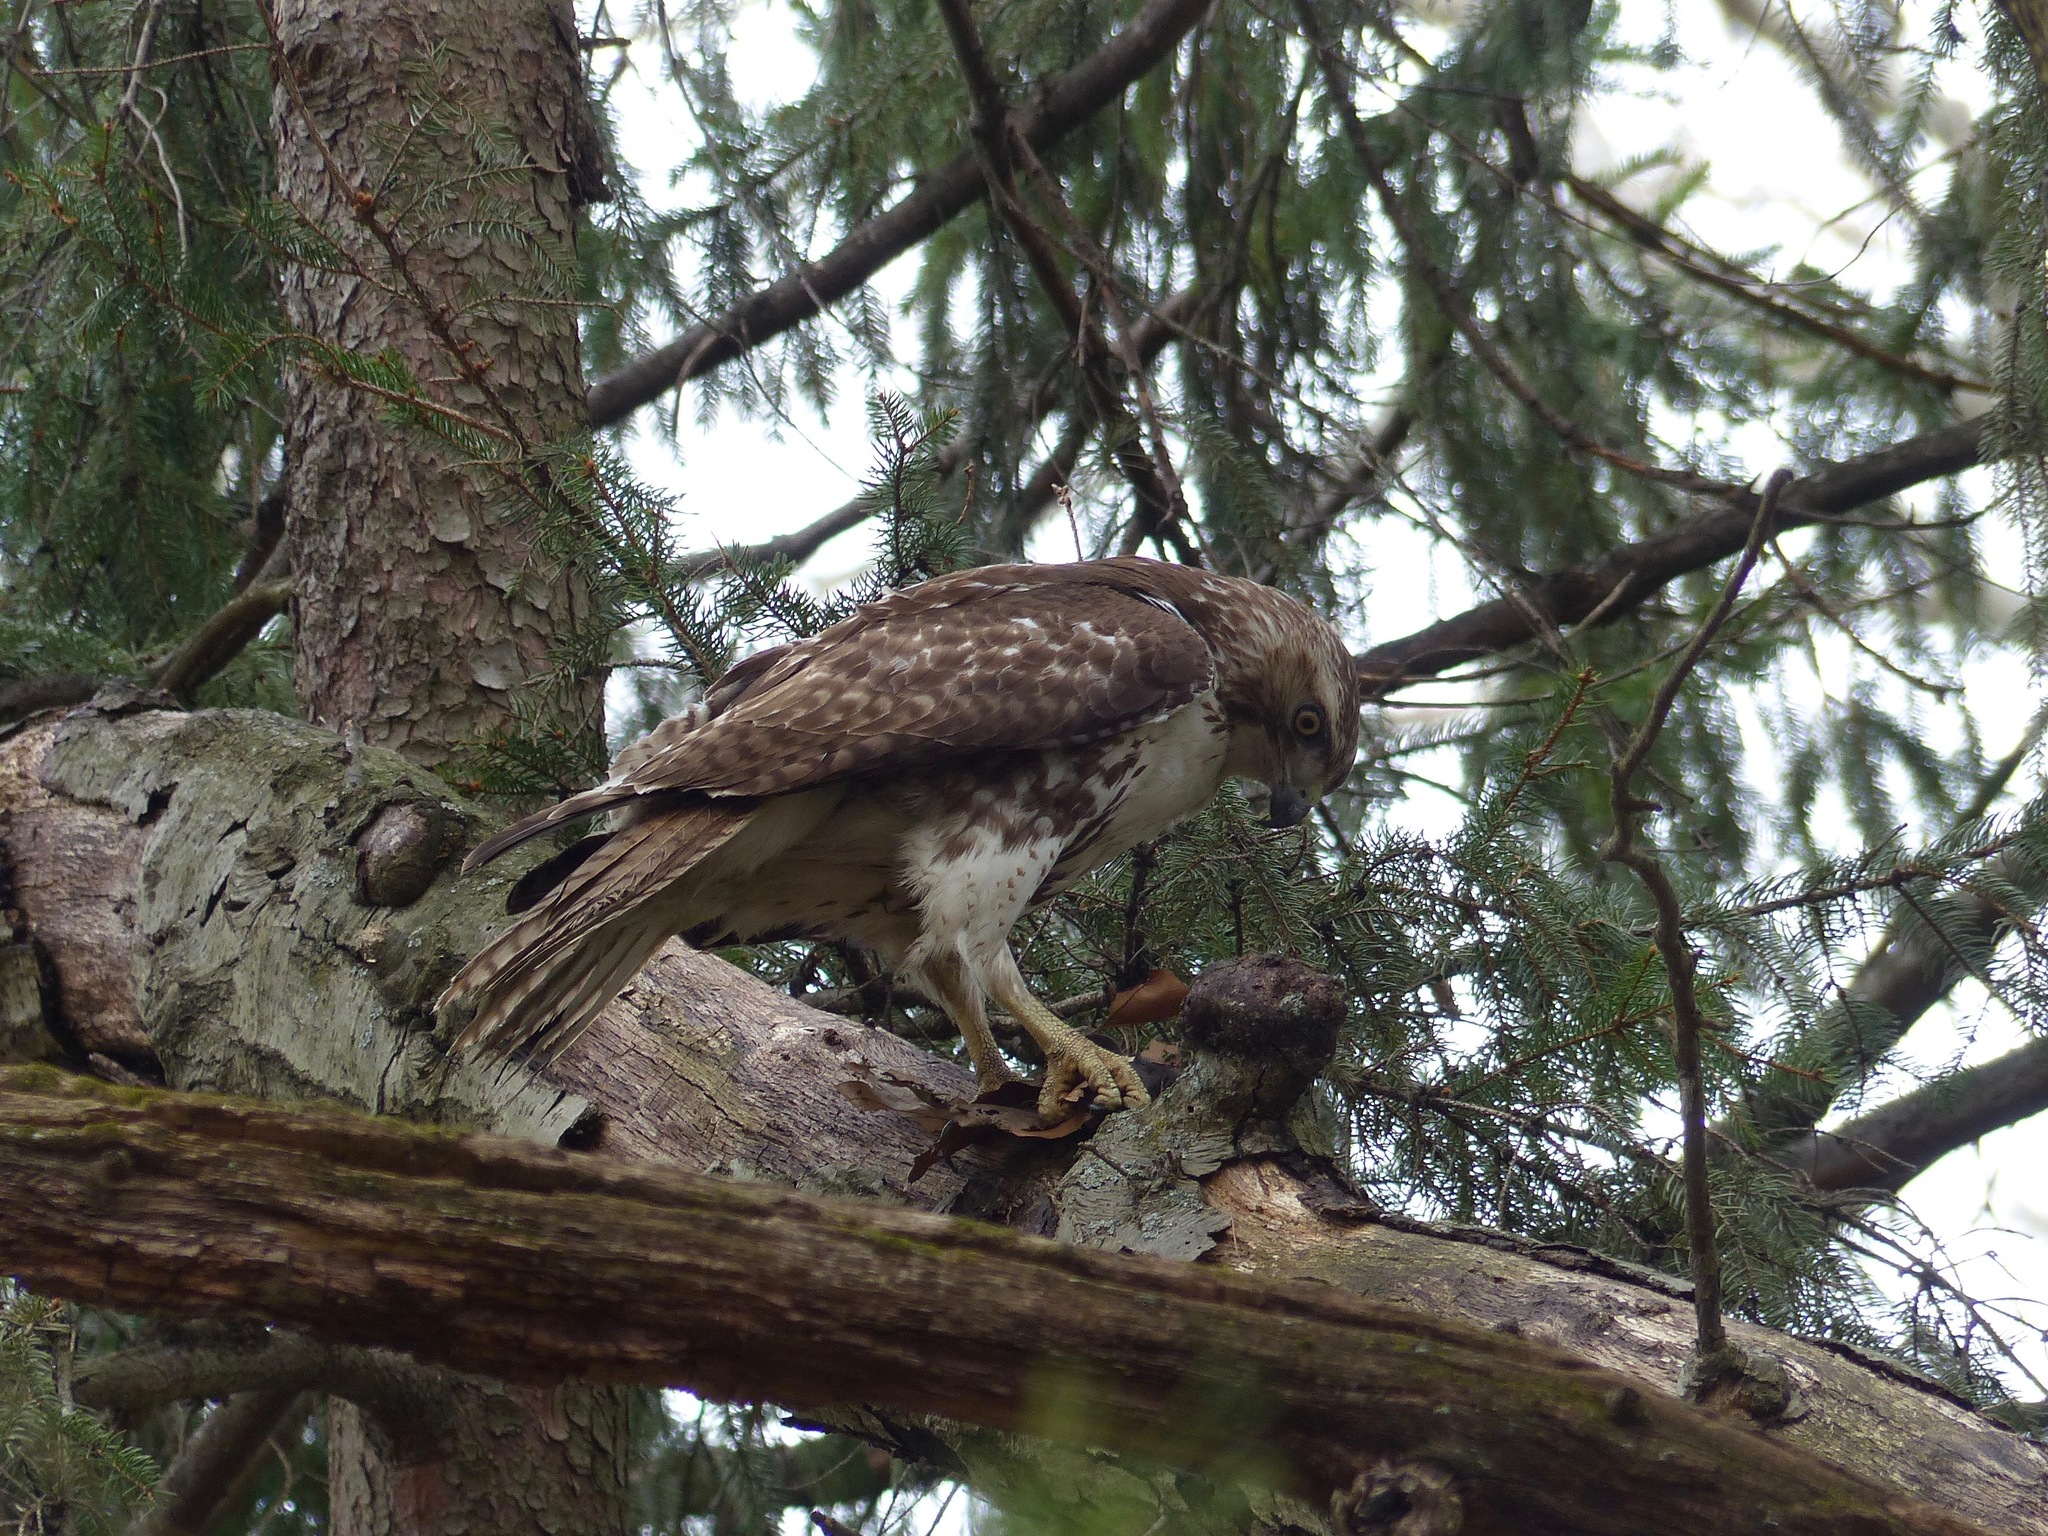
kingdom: Animalia
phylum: Chordata
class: Aves
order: Accipitriformes
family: Accipitridae
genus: Buteo
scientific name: Buteo jamaicensis
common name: Red-tailed hawk
